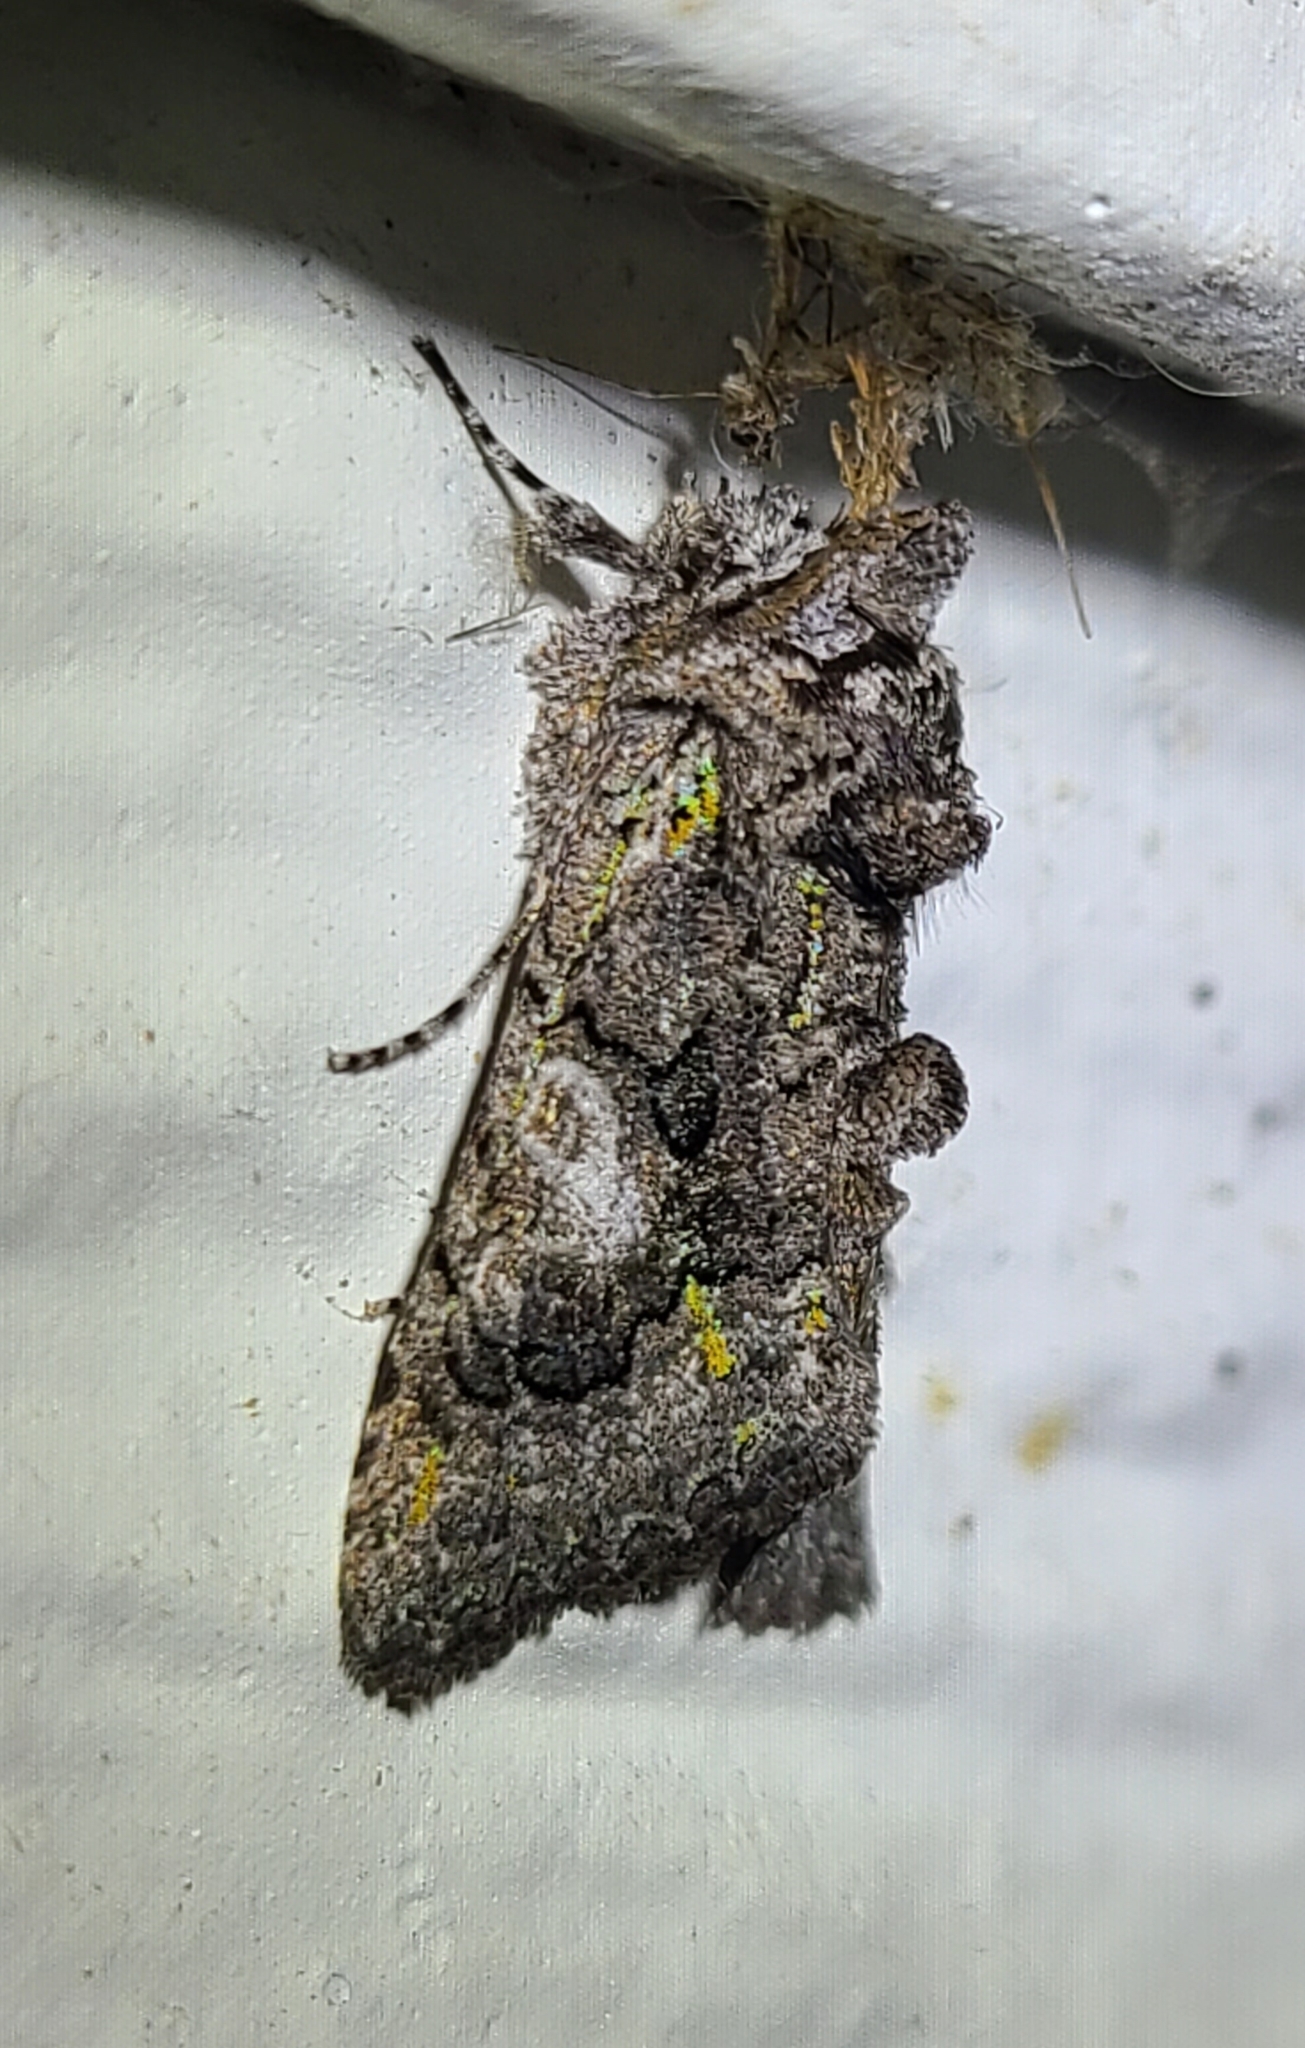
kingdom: Animalia
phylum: Arthropoda
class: Insecta
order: Lepidoptera
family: Noctuidae
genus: Behrensia
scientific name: Behrensia conchiformis
